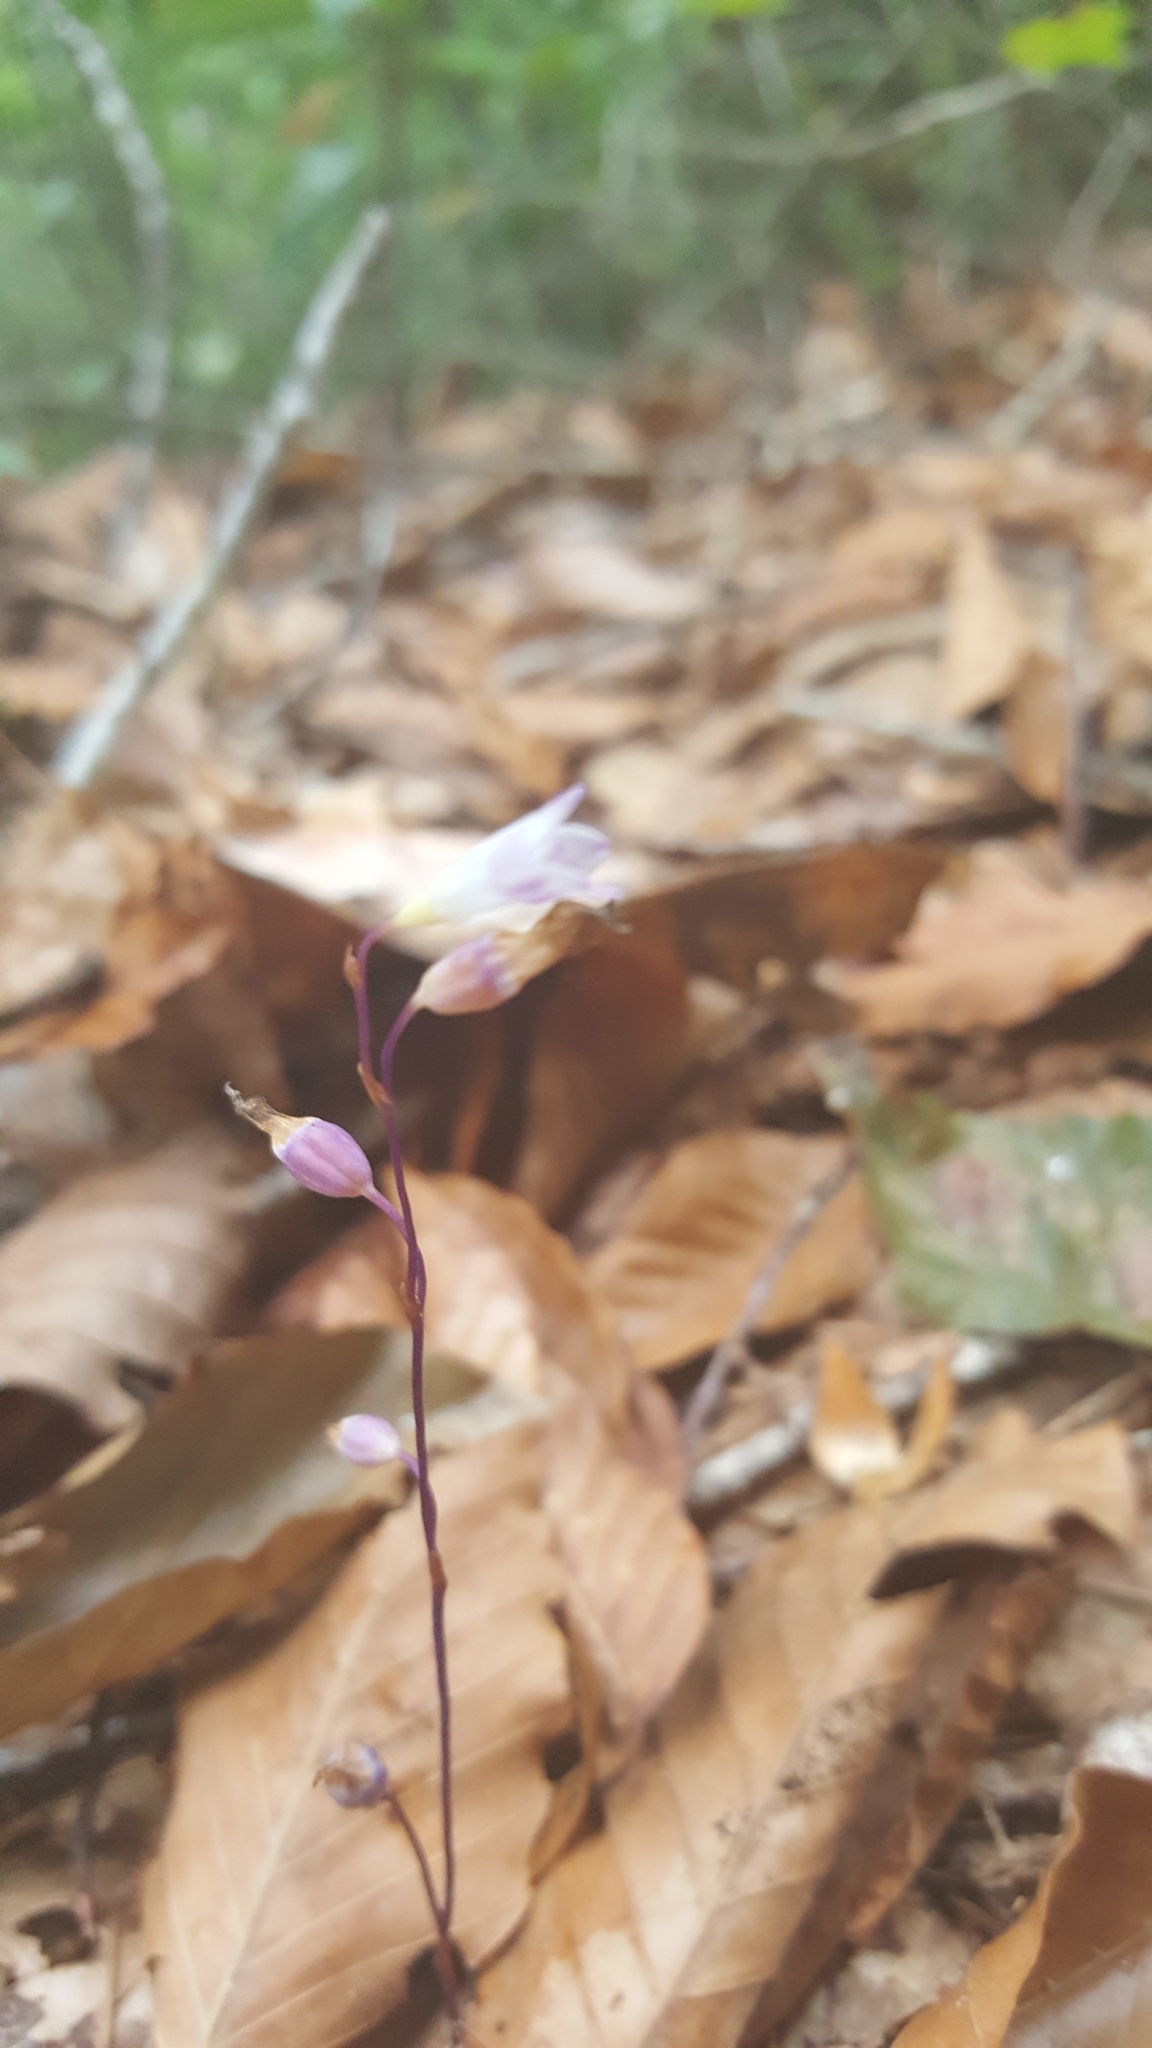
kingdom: Plantae
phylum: Tracheophyta
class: Liliopsida
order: Dioscoreales
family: Burmanniaceae
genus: Apteria
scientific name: Apteria aphylla
